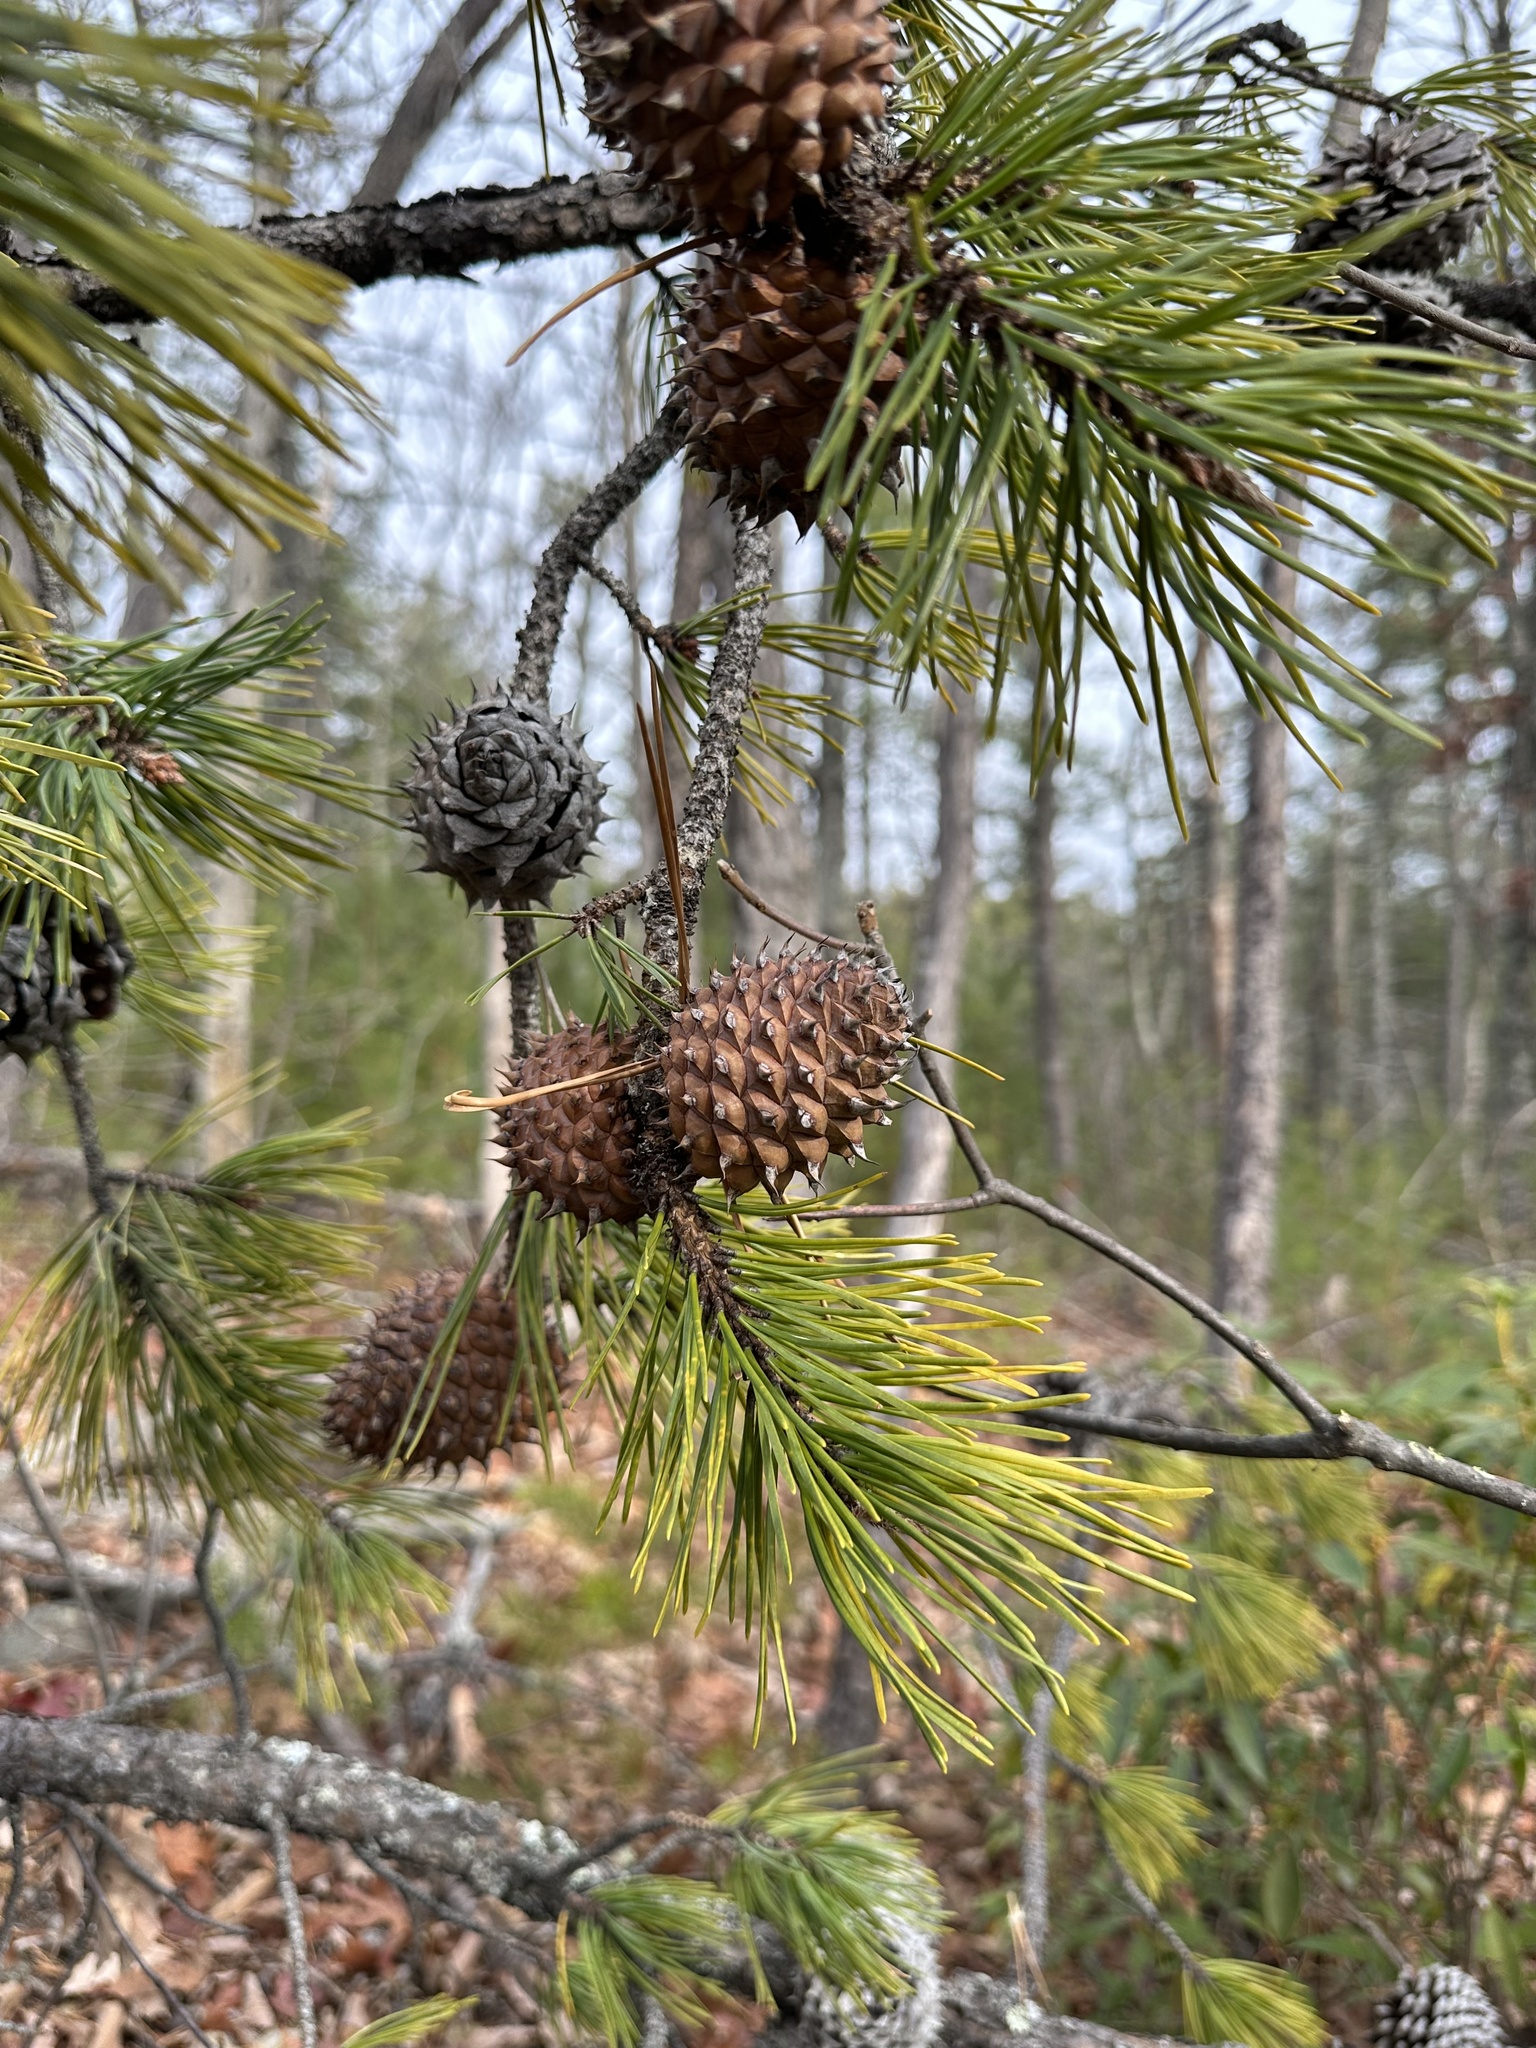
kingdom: Plantae
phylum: Tracheophyta
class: Pinopsida
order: Pinales
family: Pinaceae
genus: Pinus
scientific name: Pinus pungens
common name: Hickory pine
